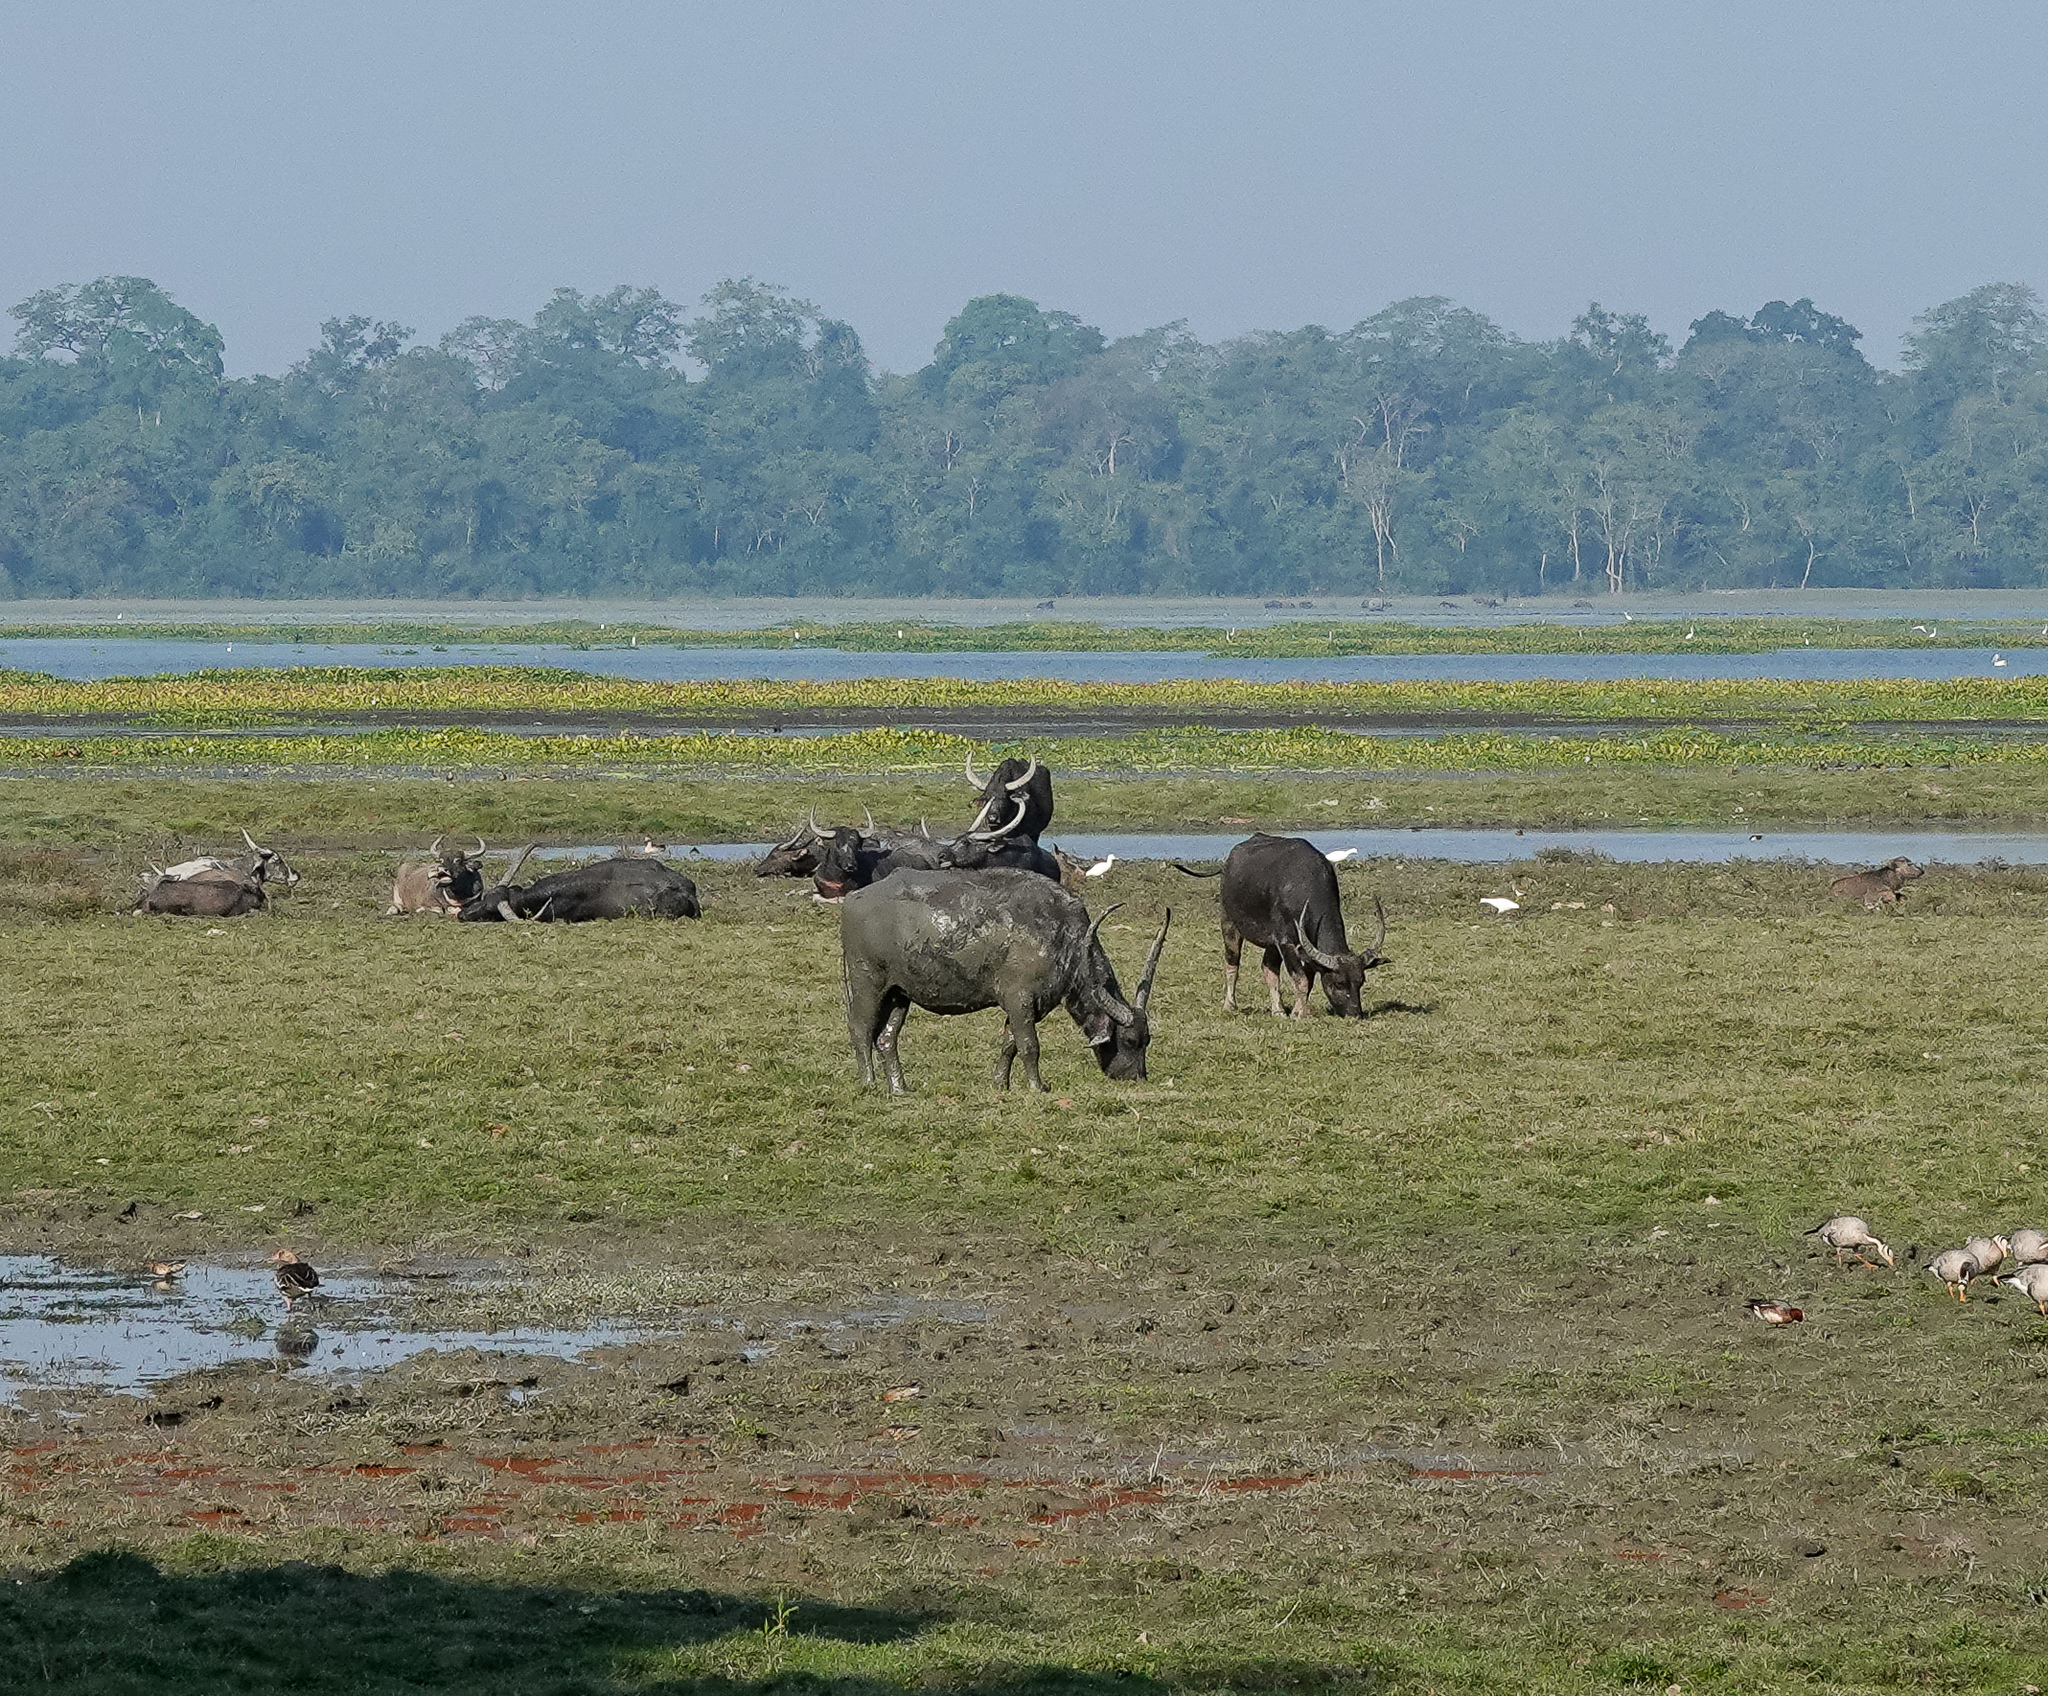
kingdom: Animalia
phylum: Chordata
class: Mammalia
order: Artiodactyla
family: Bovidae
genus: Bubalus
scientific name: Bubalus bubalis
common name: Water buffalo
